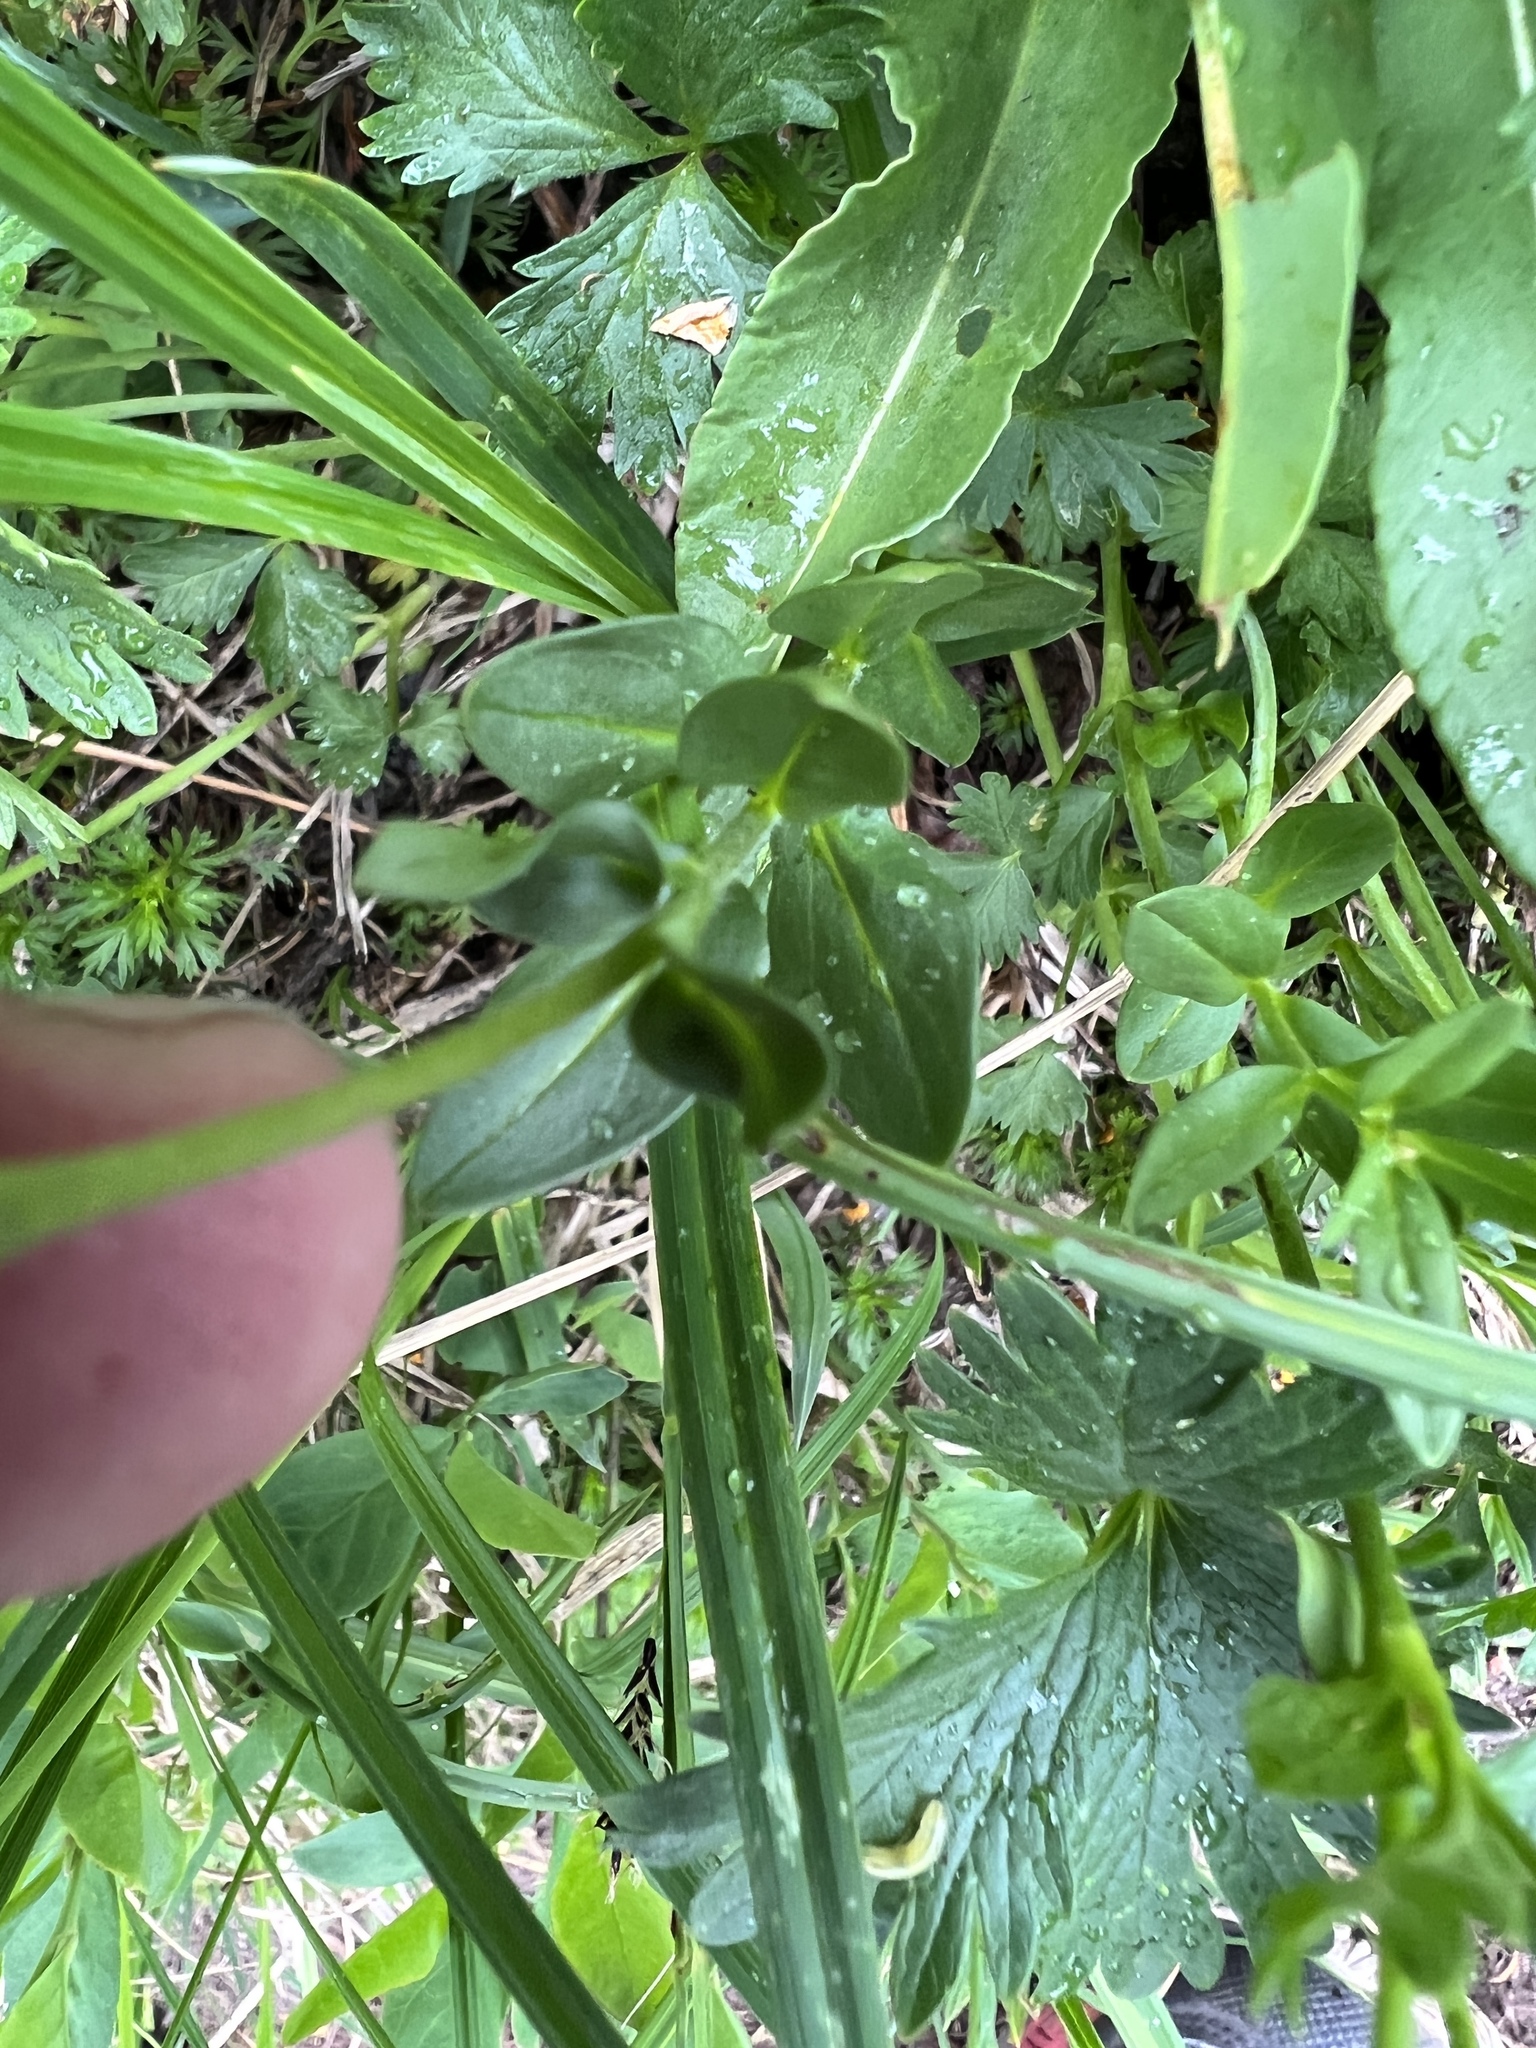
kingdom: Plantae
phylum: Tracheophyta
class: Magnoliopsida
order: Lamiales
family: Plantaginaceae
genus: Veronica
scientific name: Veronica cusickii
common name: Cusick's speedwell
